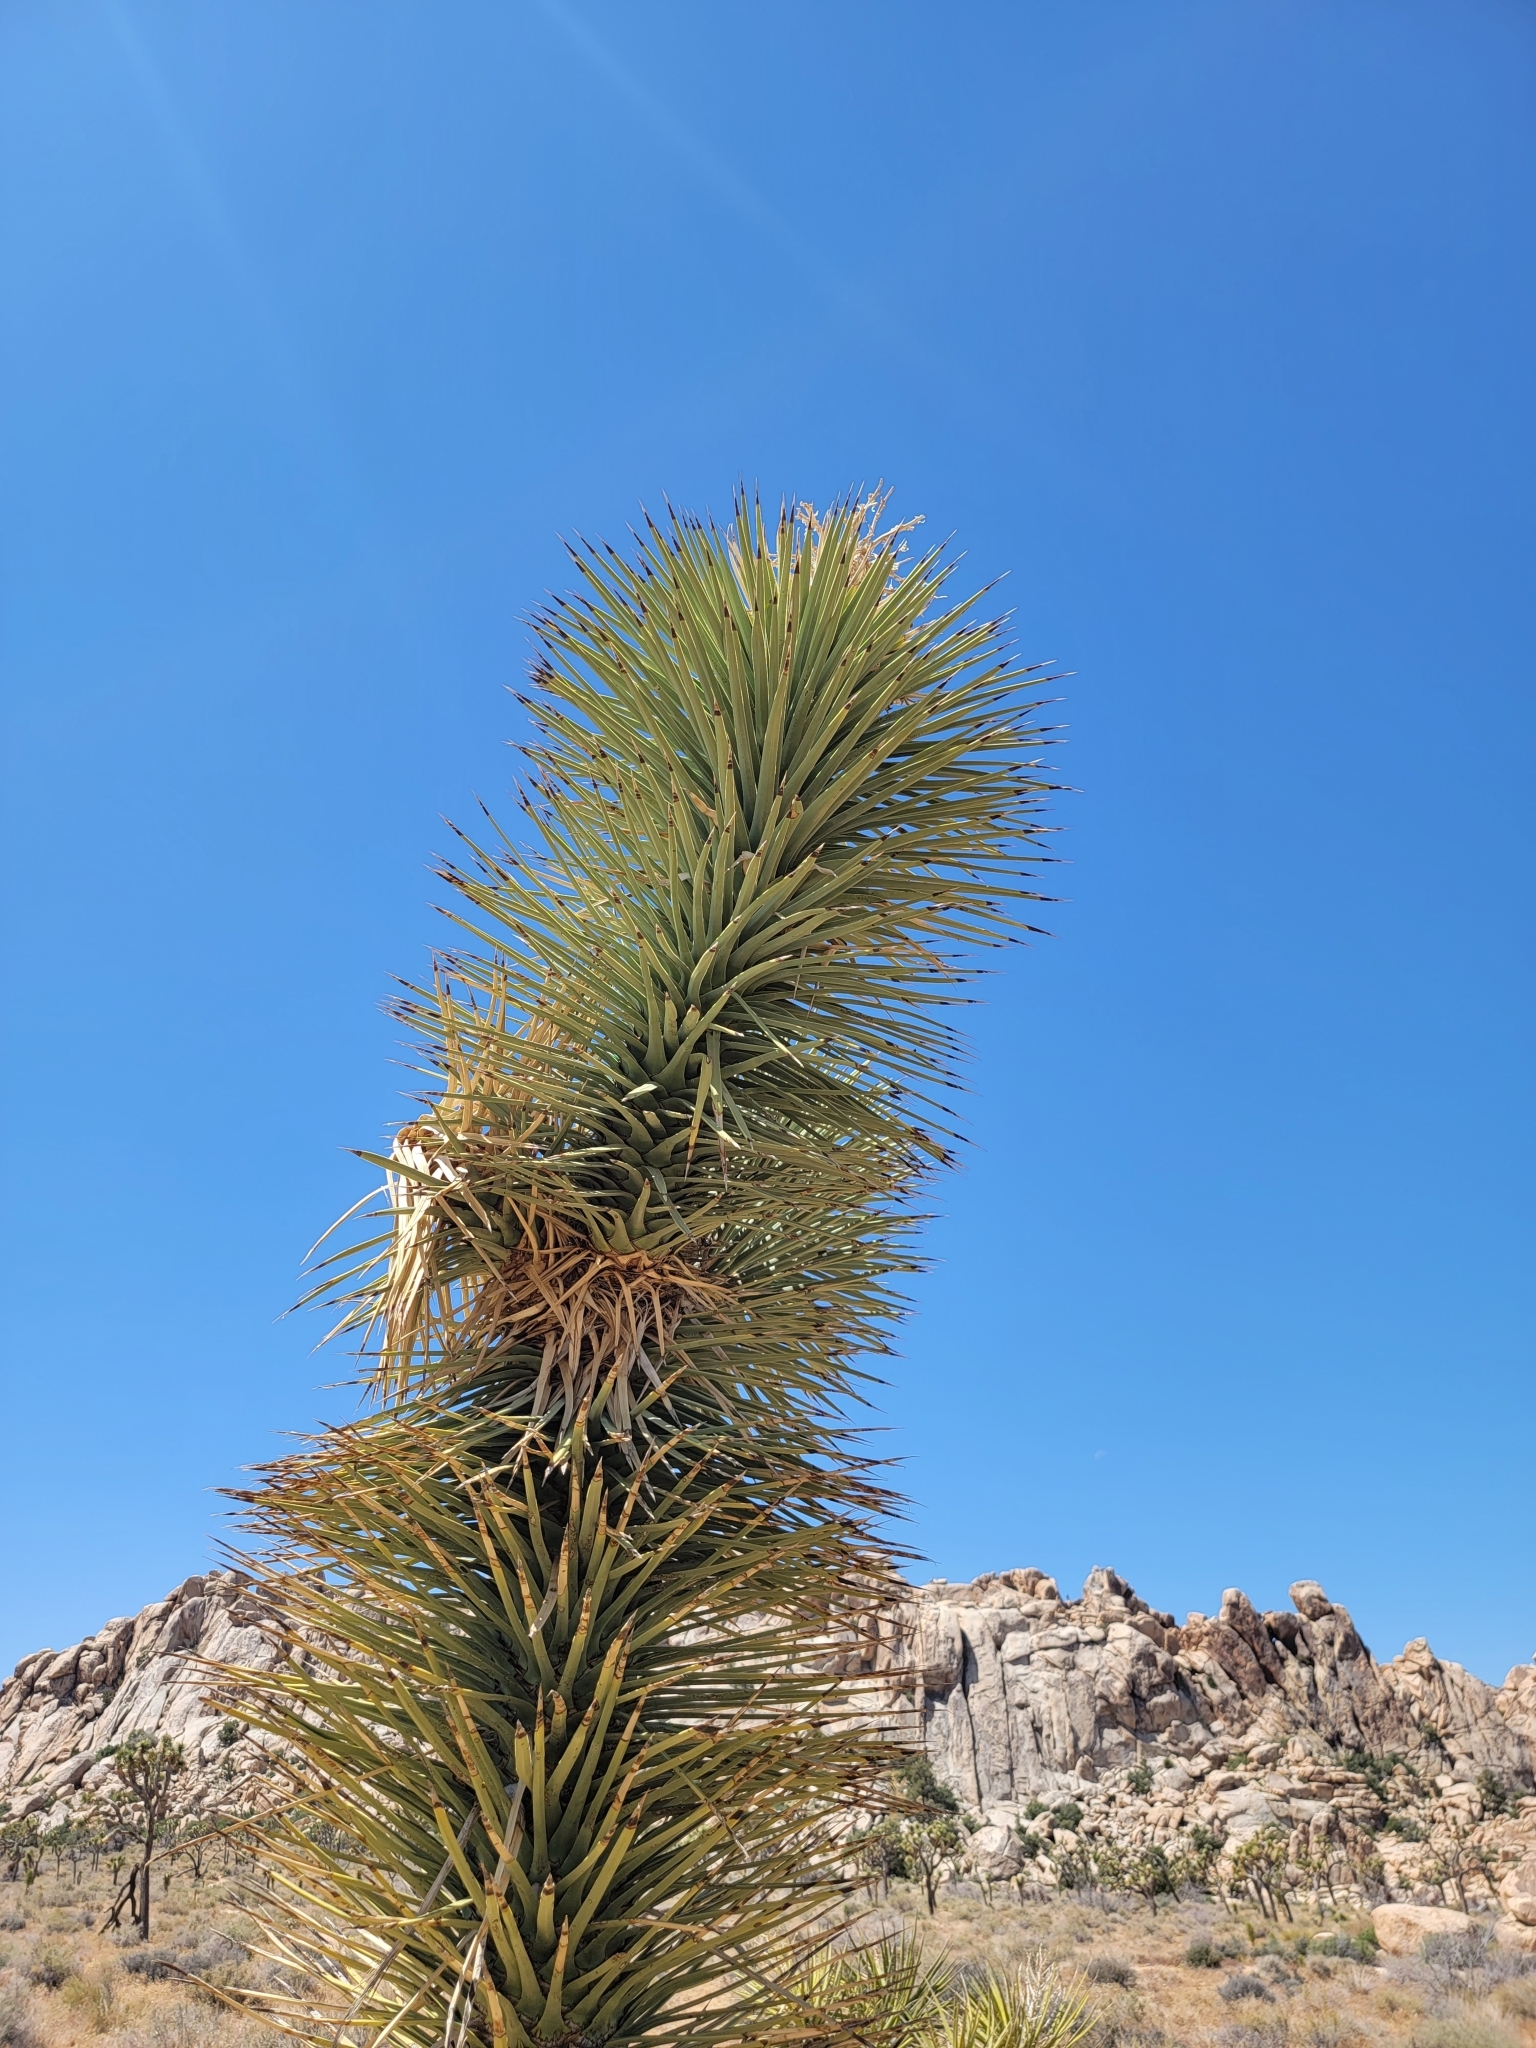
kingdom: Plantae
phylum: Tracheophyta
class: Liliopsida
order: Asparagales
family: Asparagaceae
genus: Yucca
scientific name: Yucca brevifolia
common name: Joshua tree
